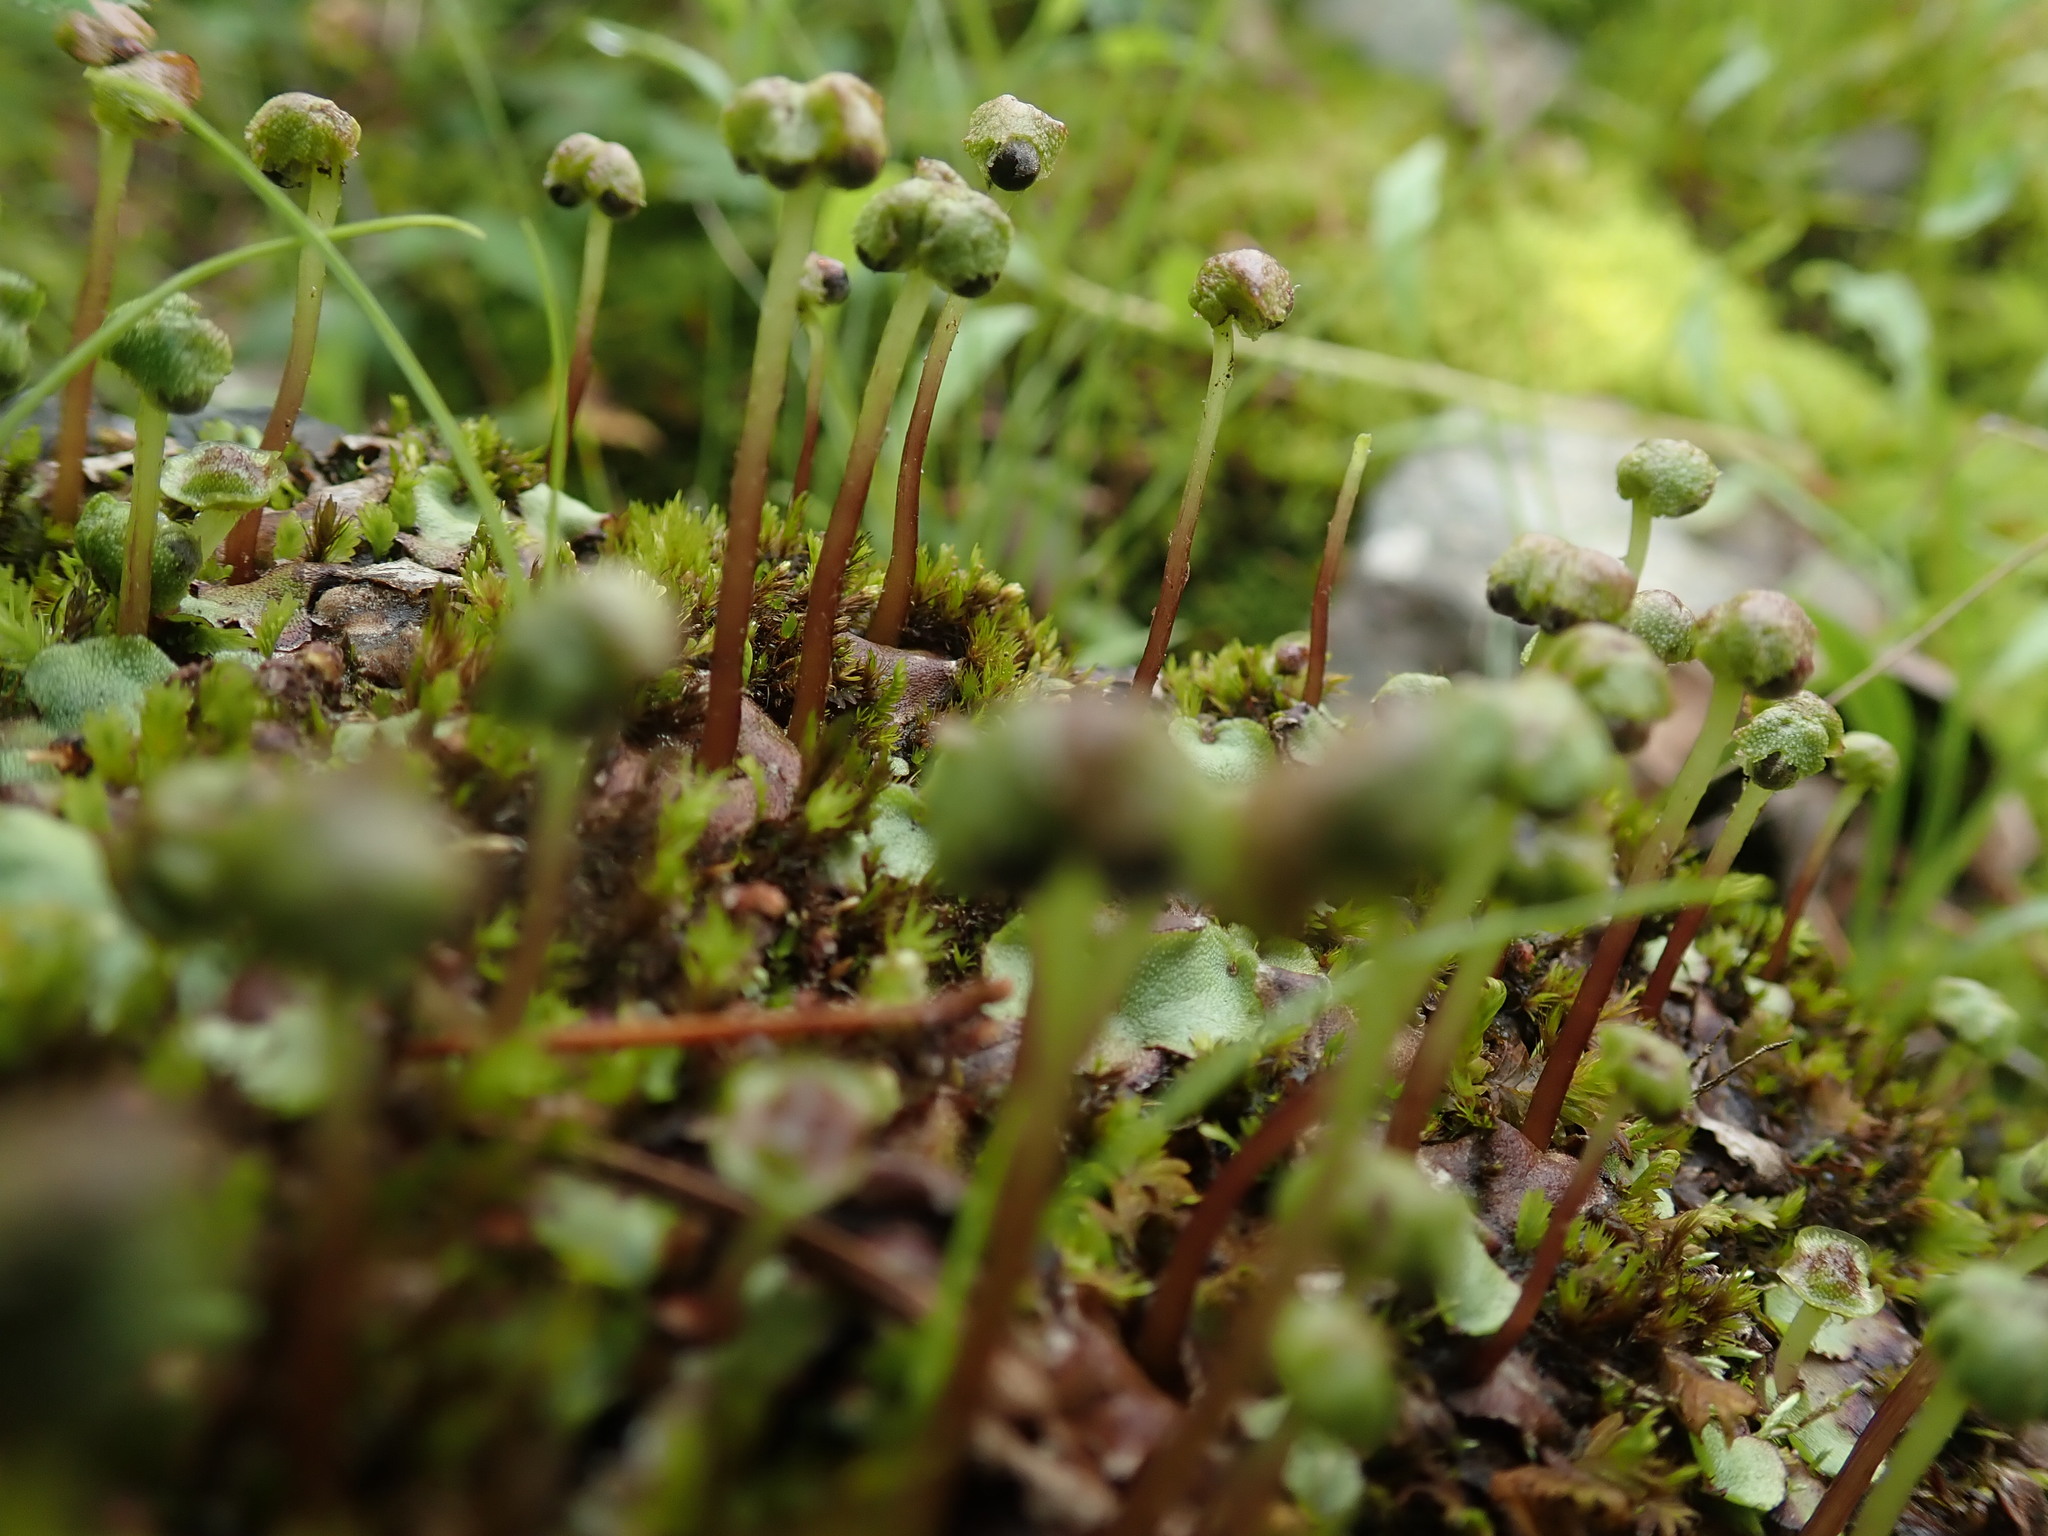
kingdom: Plantae
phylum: Marchantiophyta
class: Marchantiopsida
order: Marchantiales
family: Marchantiaceae
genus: Marchantia
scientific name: Marchantia quadrata
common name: Narrow mushroom-headed liverwort
